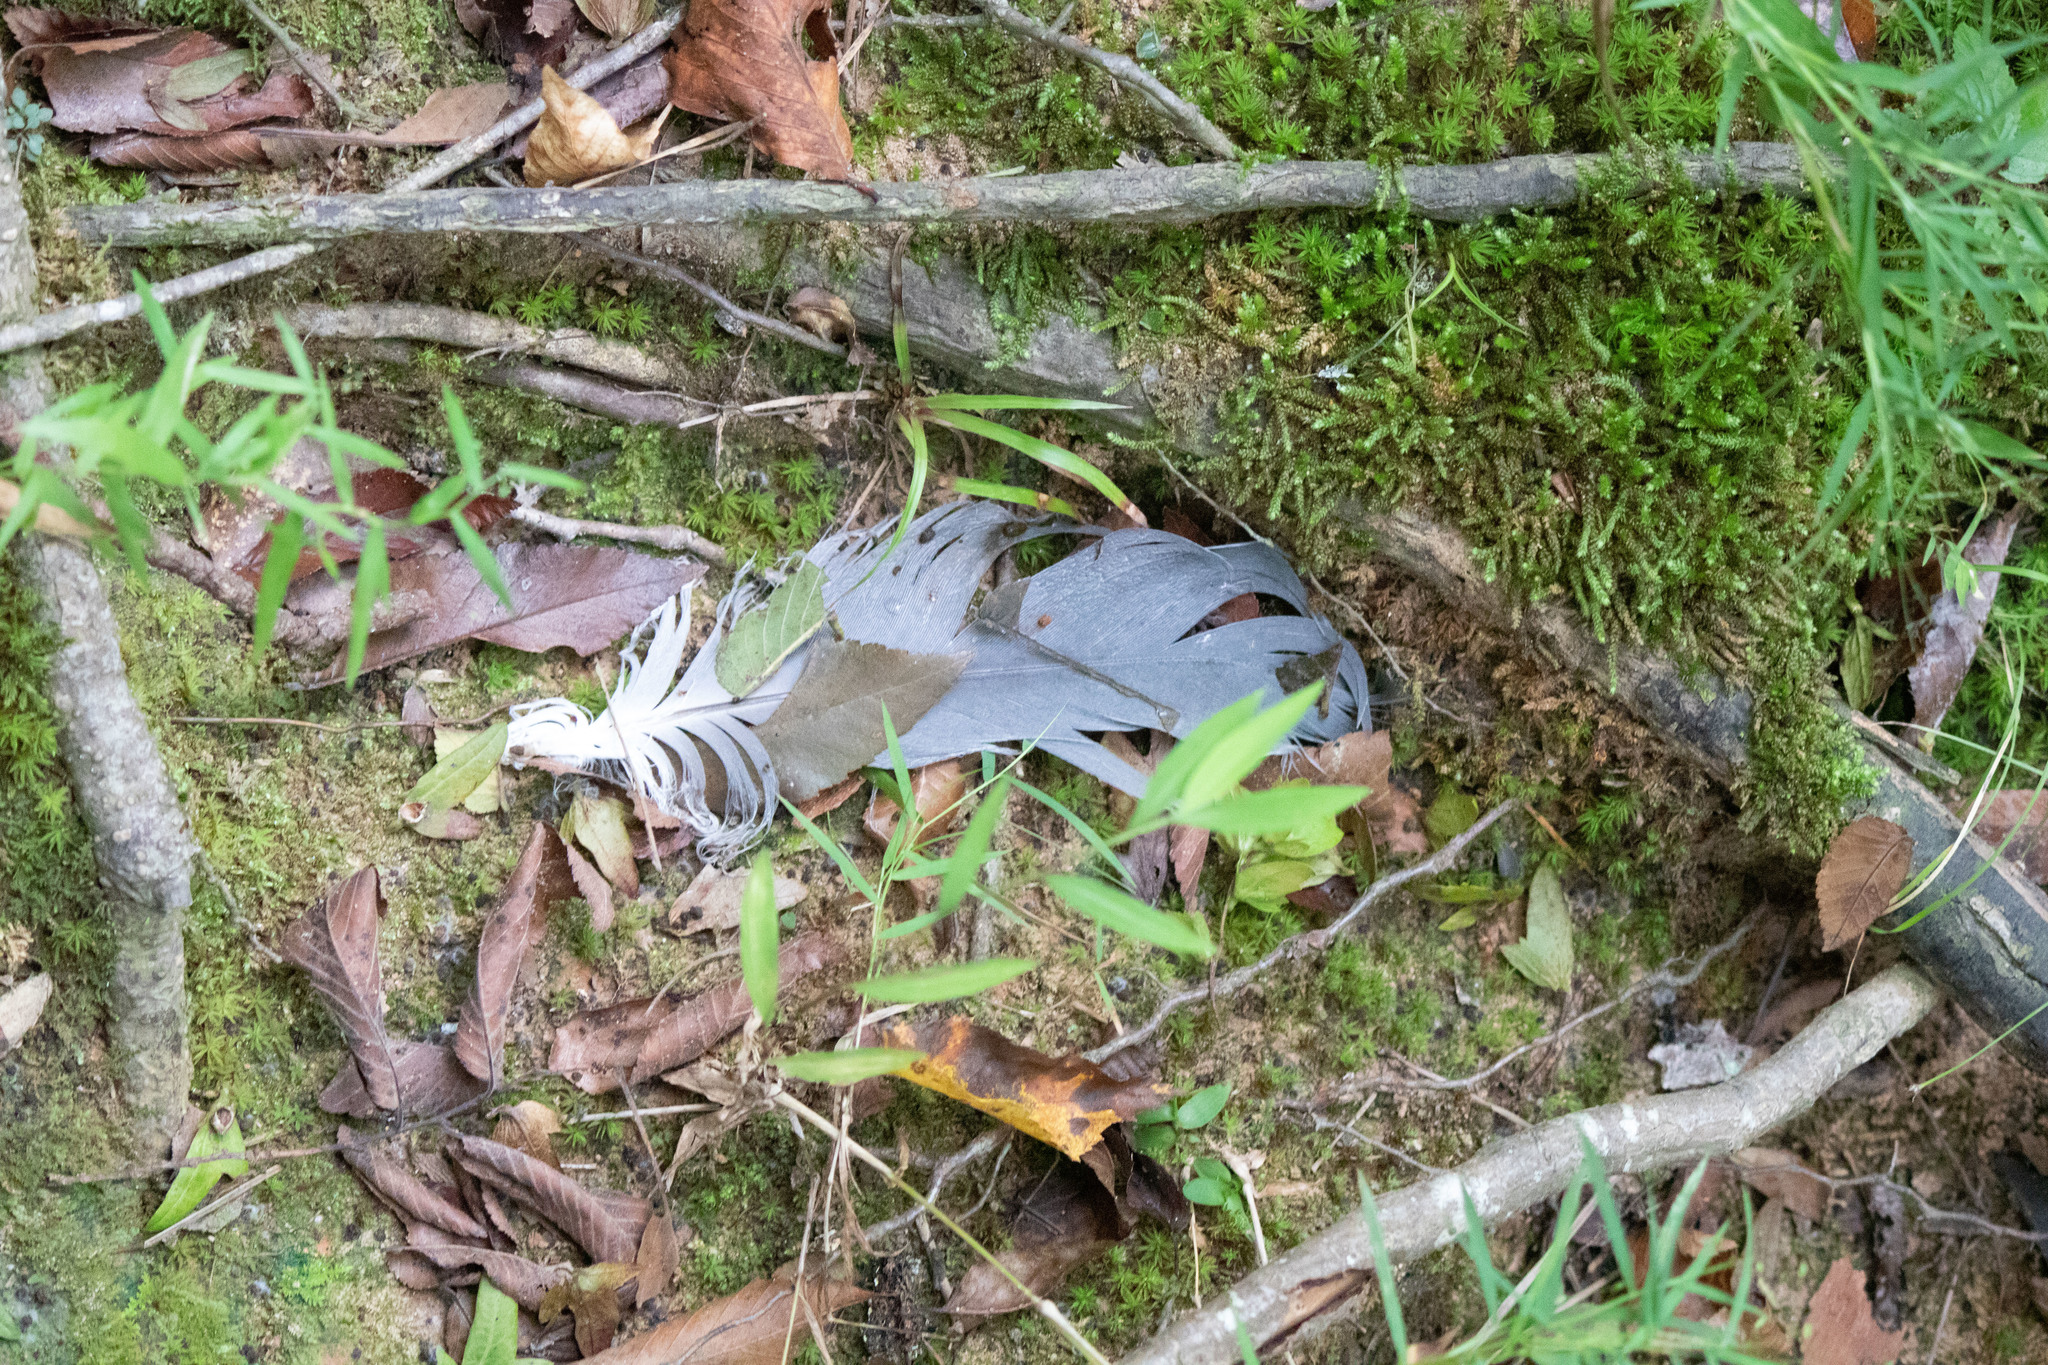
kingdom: Animalia
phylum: Chordata
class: Aves
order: Pelecaniformes
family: Ardeidae
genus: Ardea
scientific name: Ardea herodias
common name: Great blue heron
